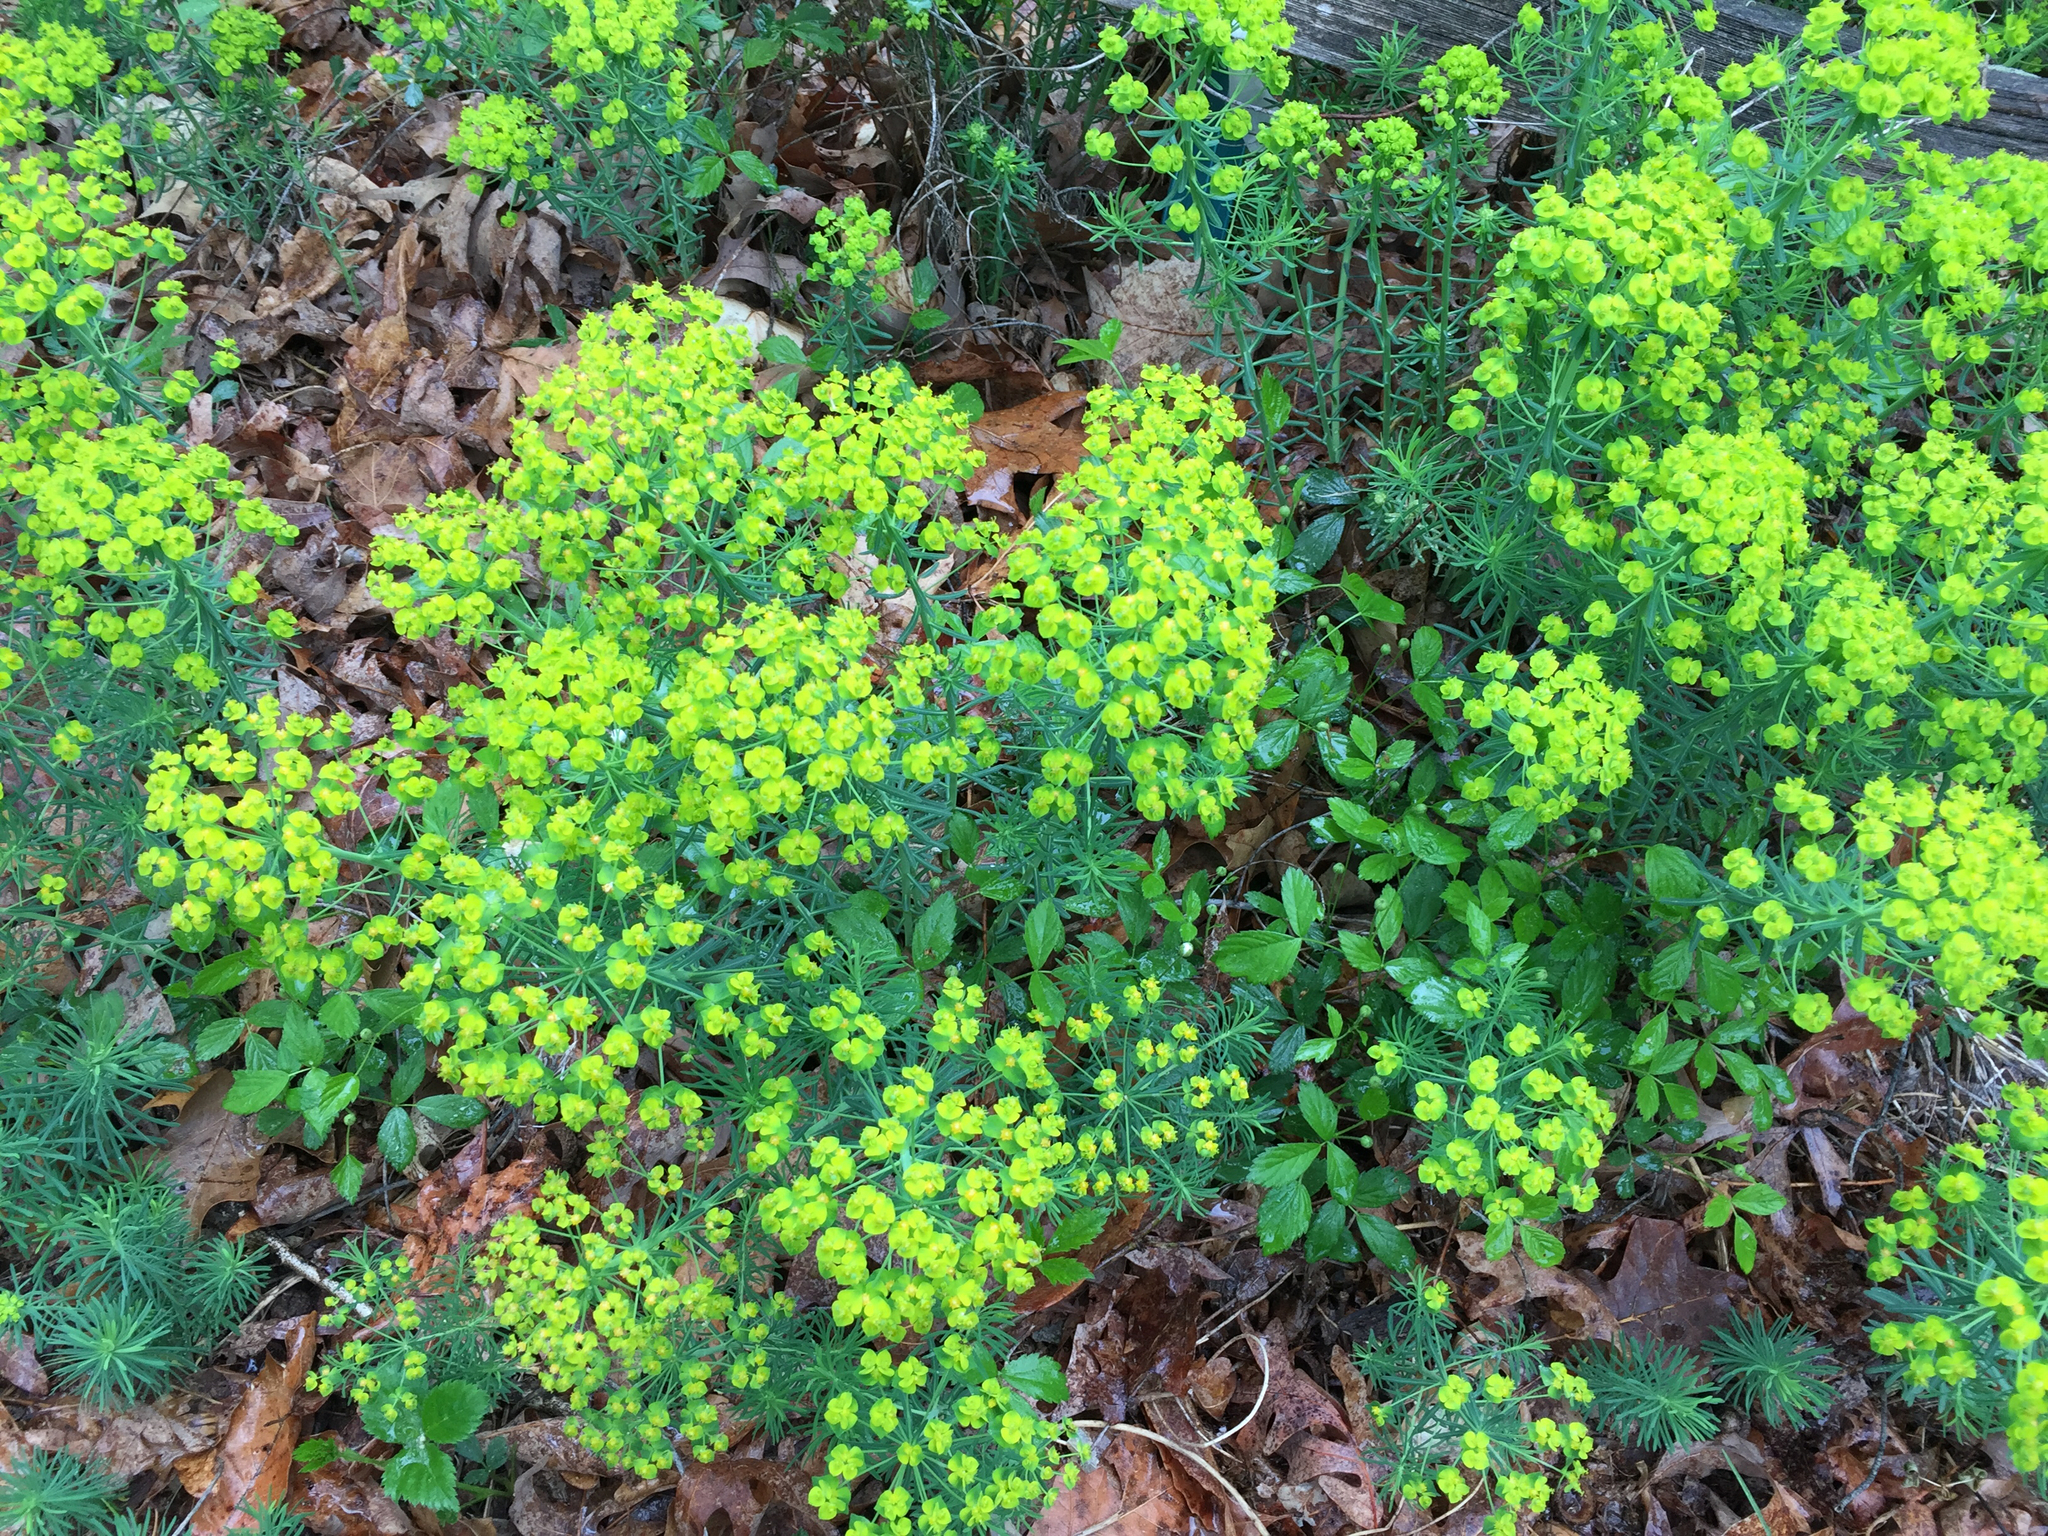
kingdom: Plantae
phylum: Tracheophyta
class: Magnoliopsida
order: Malpighiales
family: Euphorbiaceae
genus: Euphorbia
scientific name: Euphorbia cyparissias
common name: Cypress spurge
